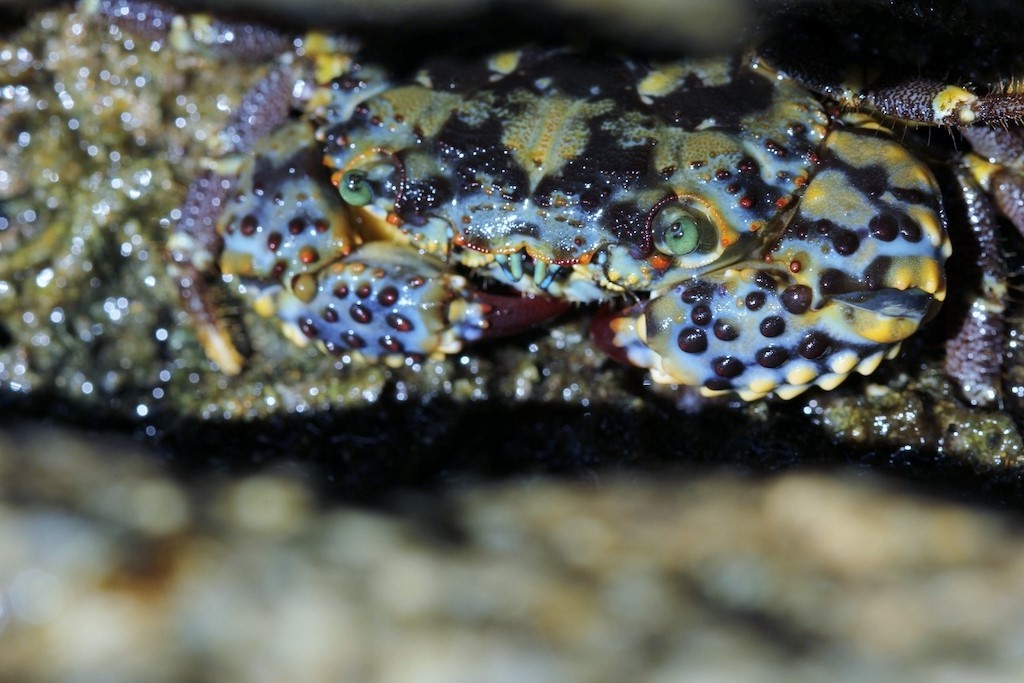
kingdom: Animalia
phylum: Arthropoda
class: Malacostraca
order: Decapoda
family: Eriphiidae
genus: Eriphia
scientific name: Eriphia gonagra
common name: Calico crab
